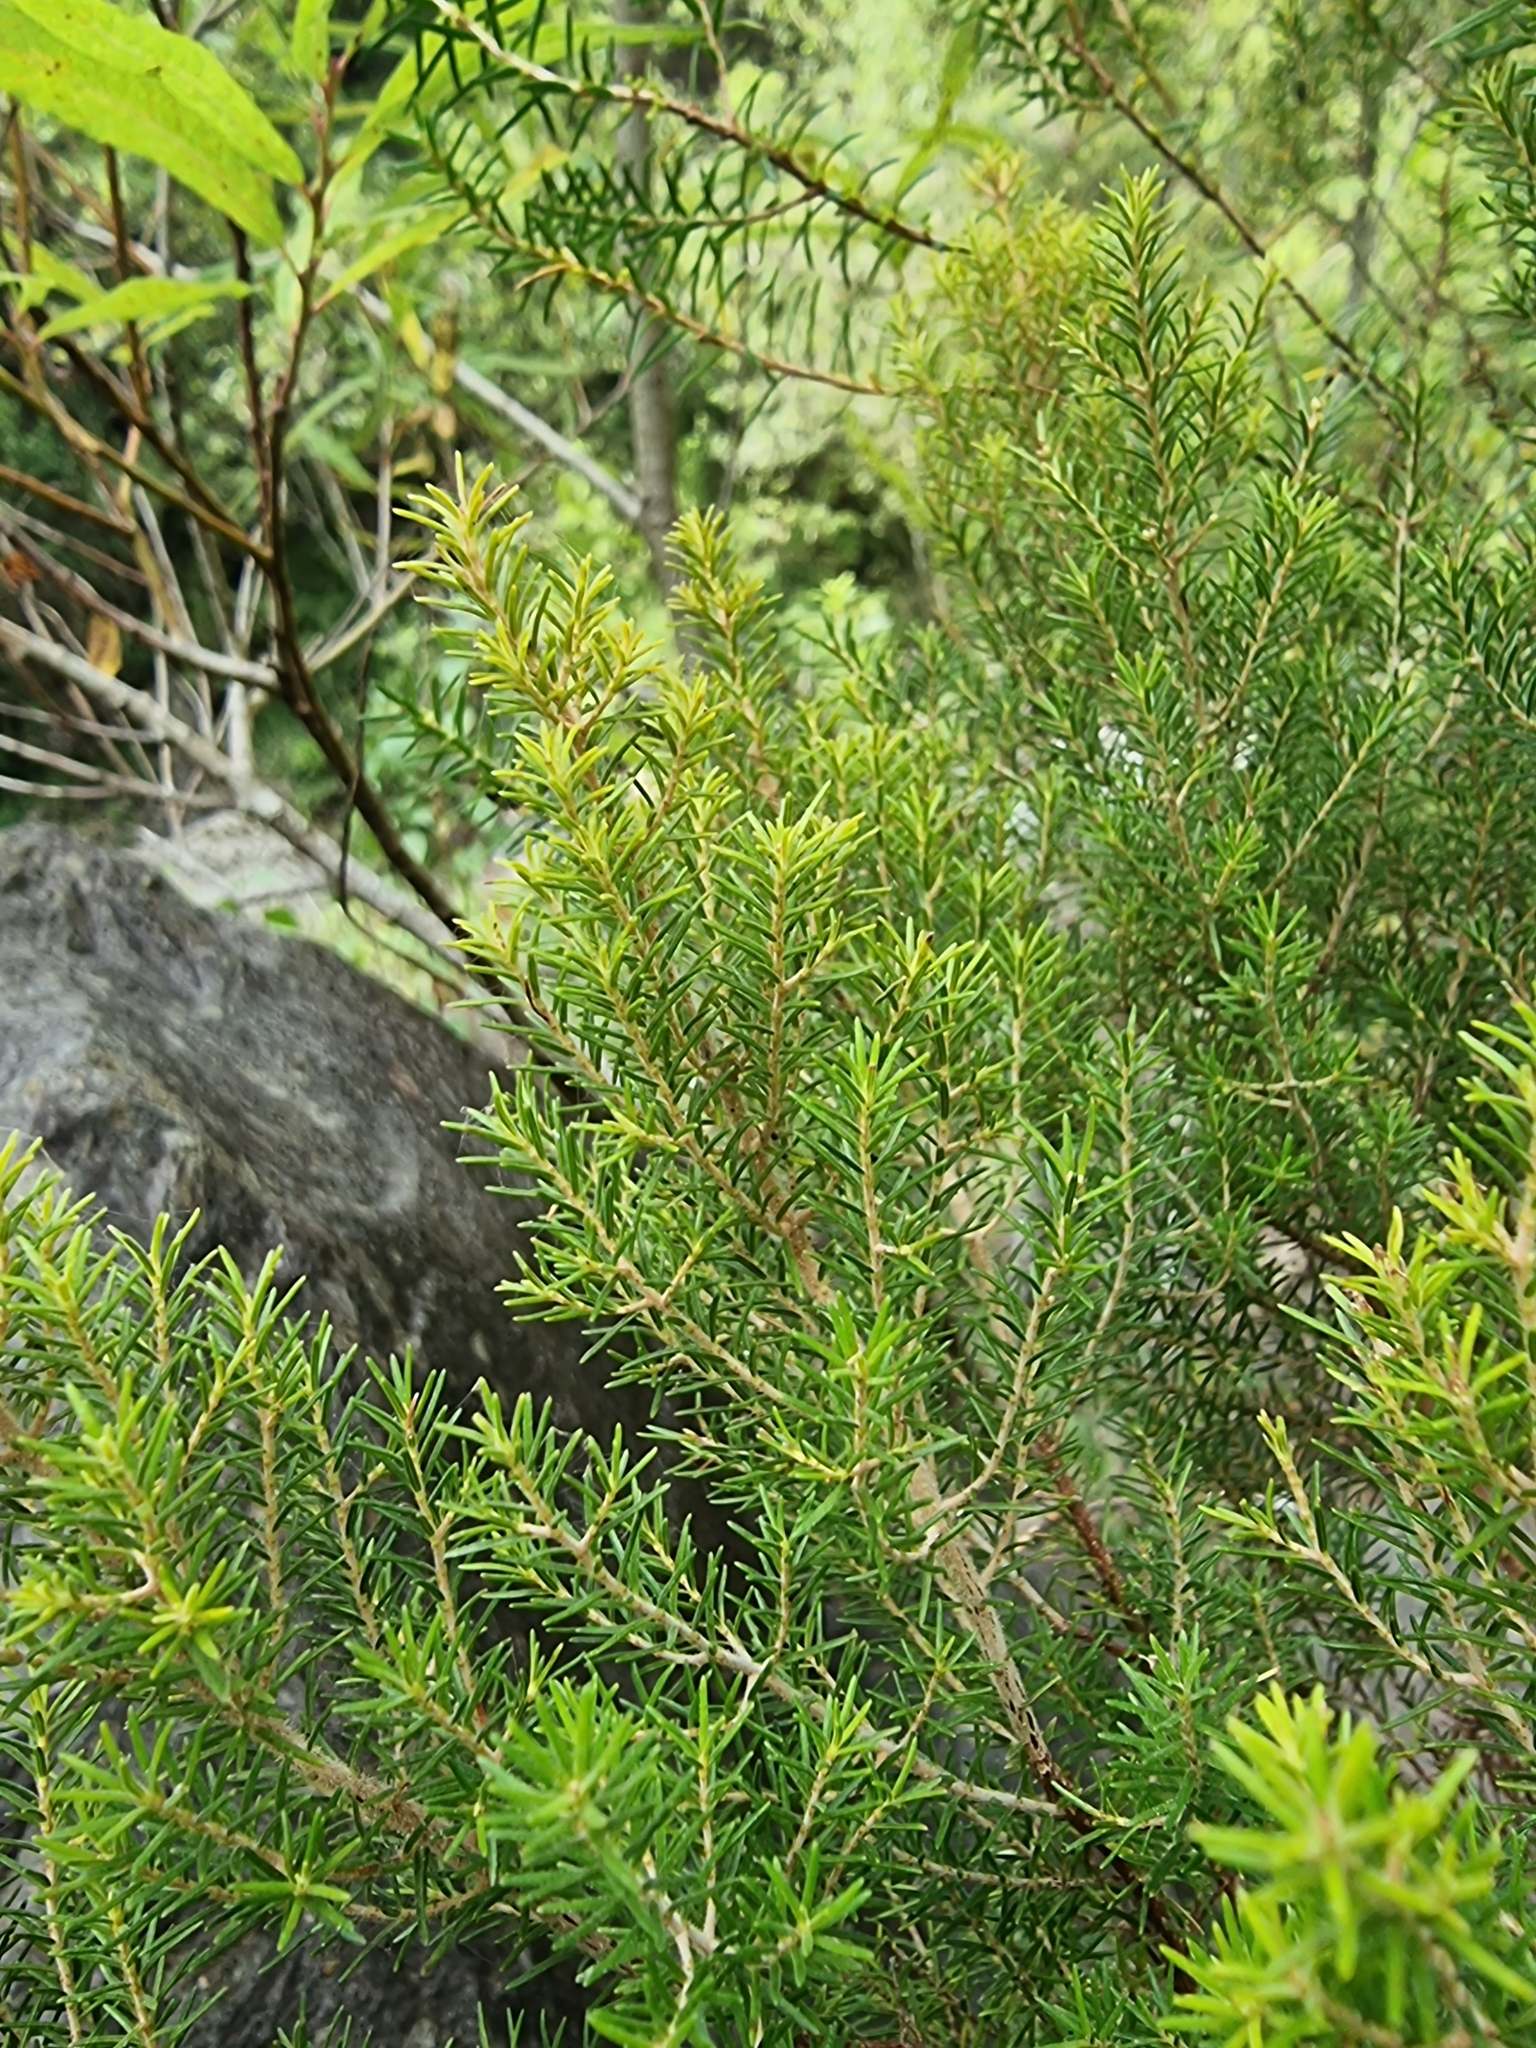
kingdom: Plantae
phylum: Tracheophyta
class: Magnoliopsida
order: Ericales
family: Ericaceae
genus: Erica
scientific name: Erica platycodon
